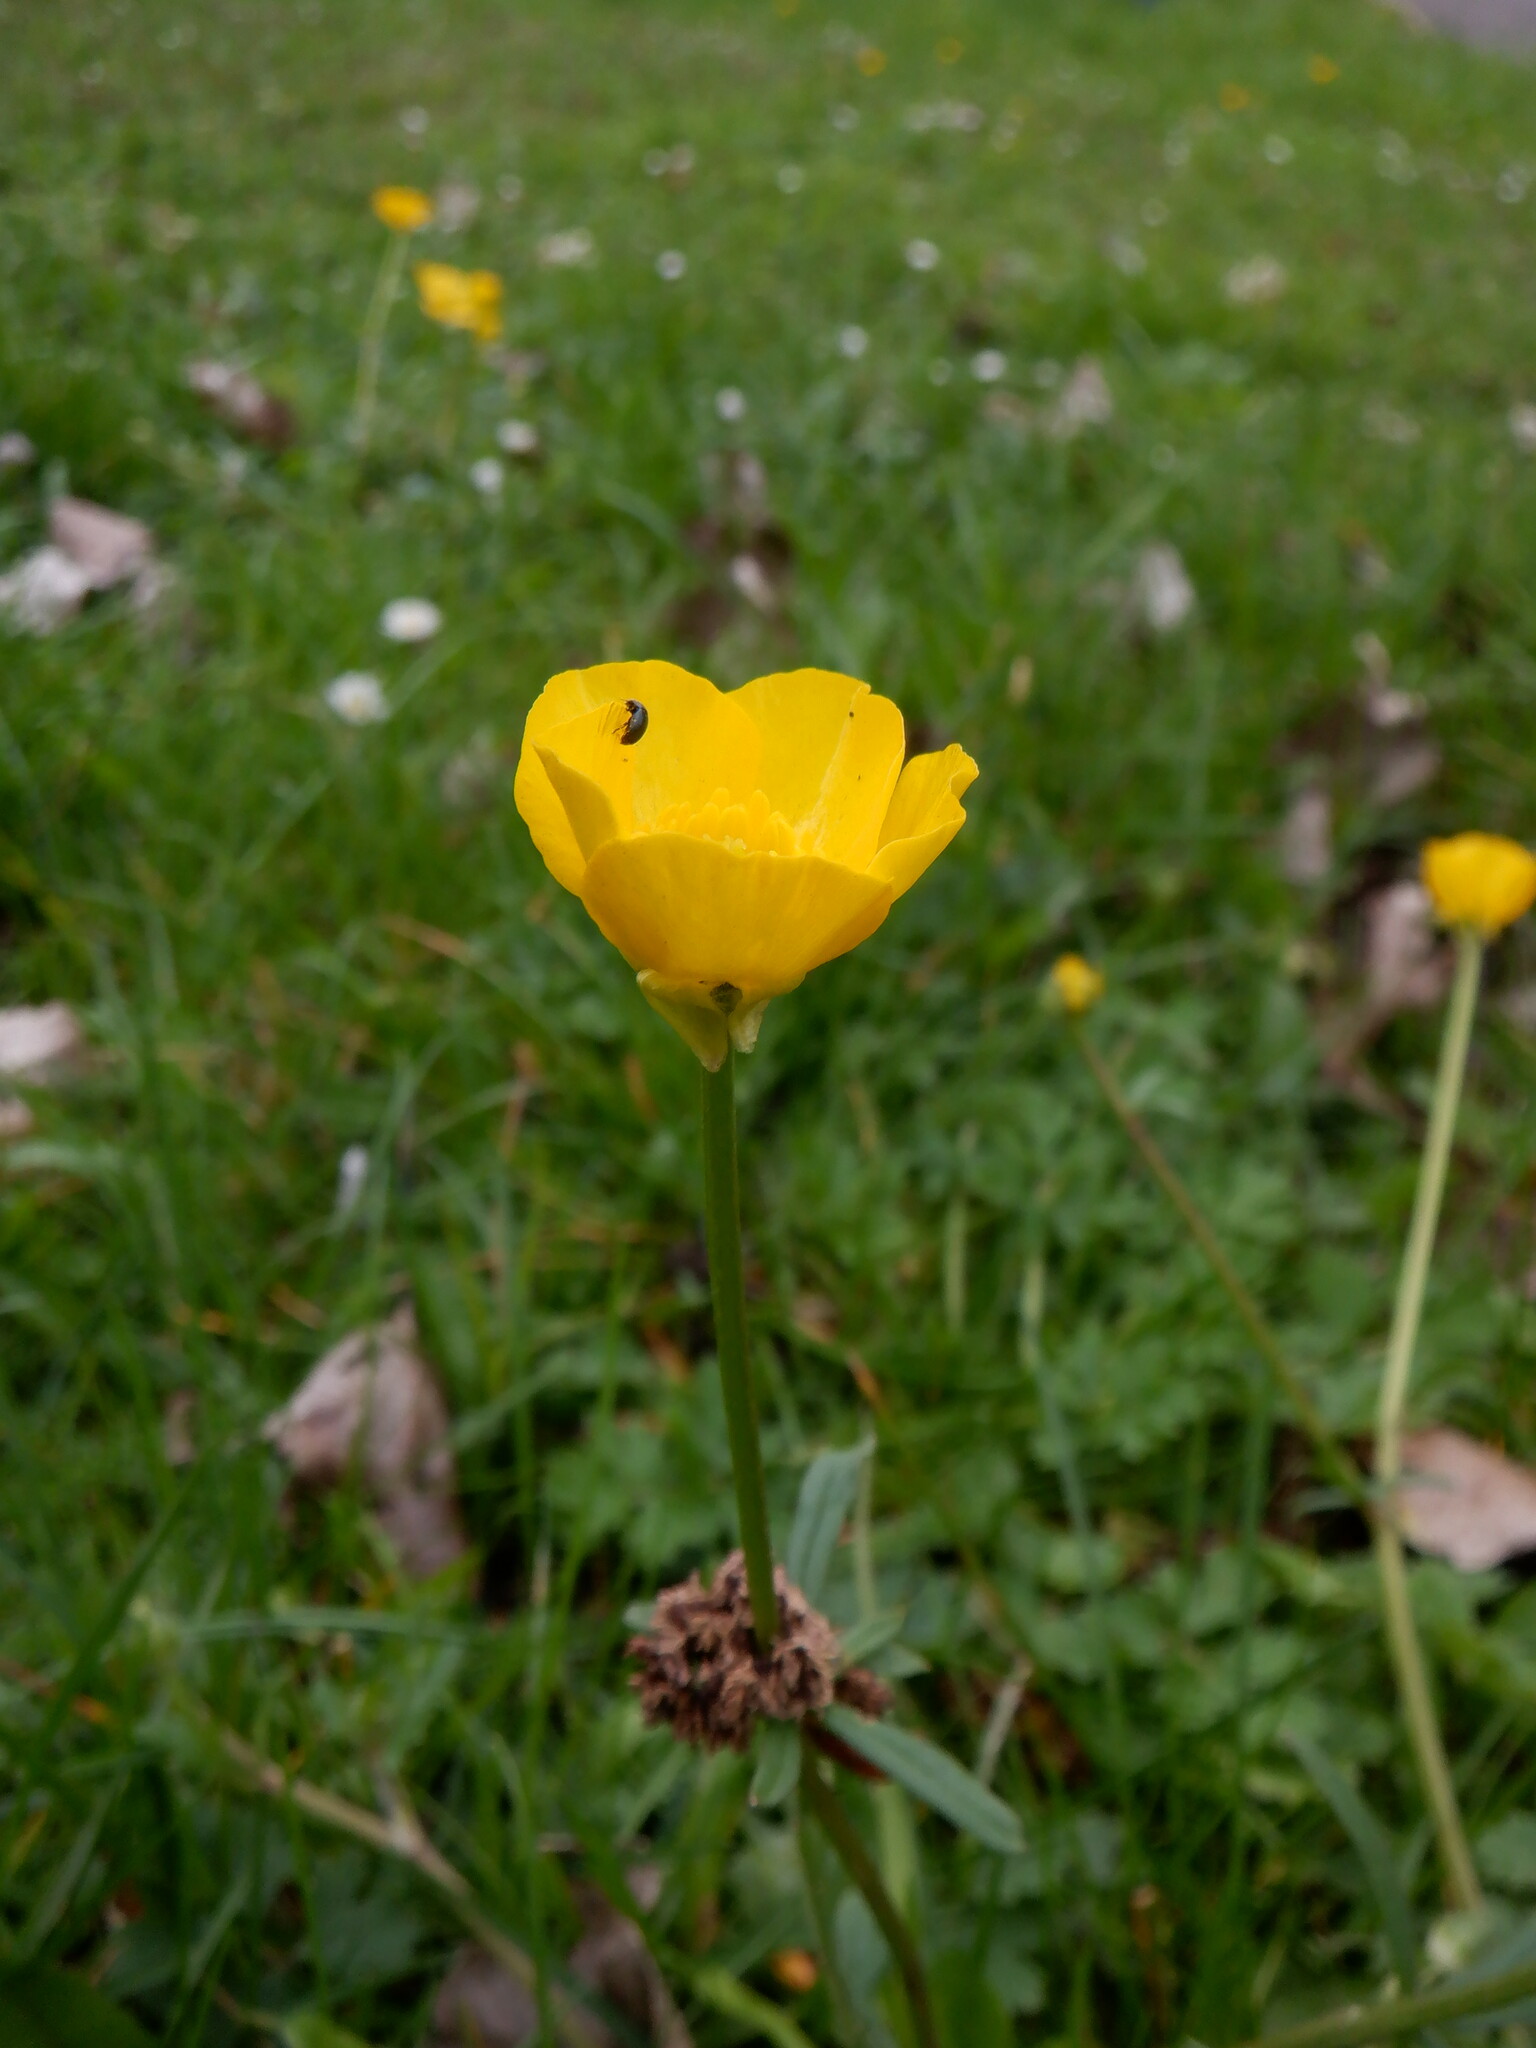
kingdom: Plantae
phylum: Tracheophyta
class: Magnoliopsida
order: Ranunculales
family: Ranunculaceae
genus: Ranunculus
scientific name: Ranunculus bulbosus
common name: Bulbous buttercup
